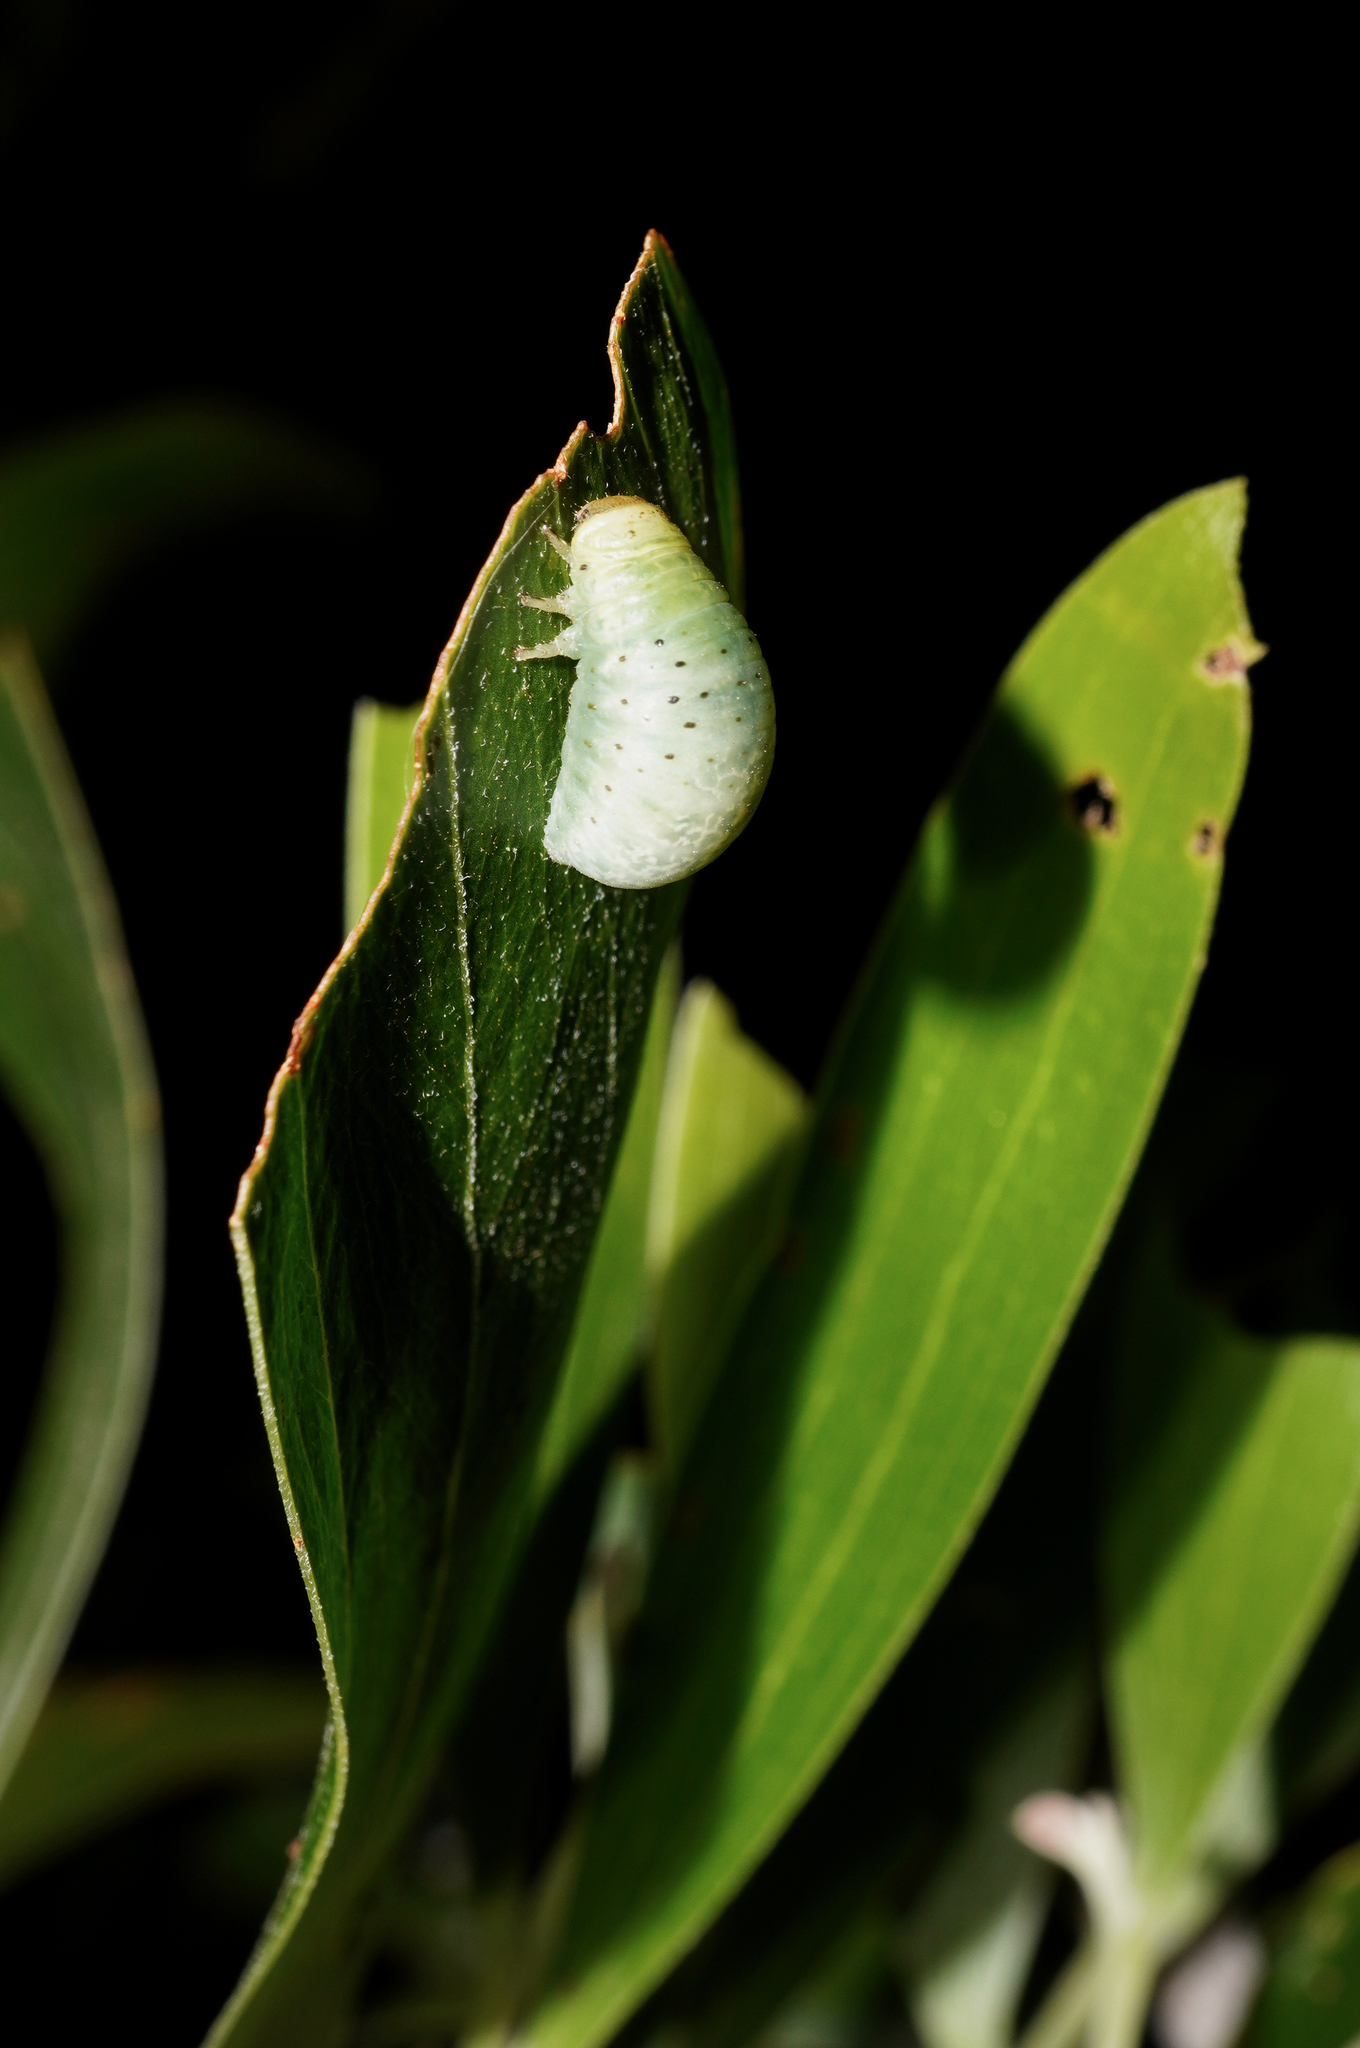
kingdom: Animalia
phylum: Arthropoda
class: Insecta
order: Coleoptera
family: Chrysomelidae
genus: Dicranosterna
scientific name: Dicranosterna
